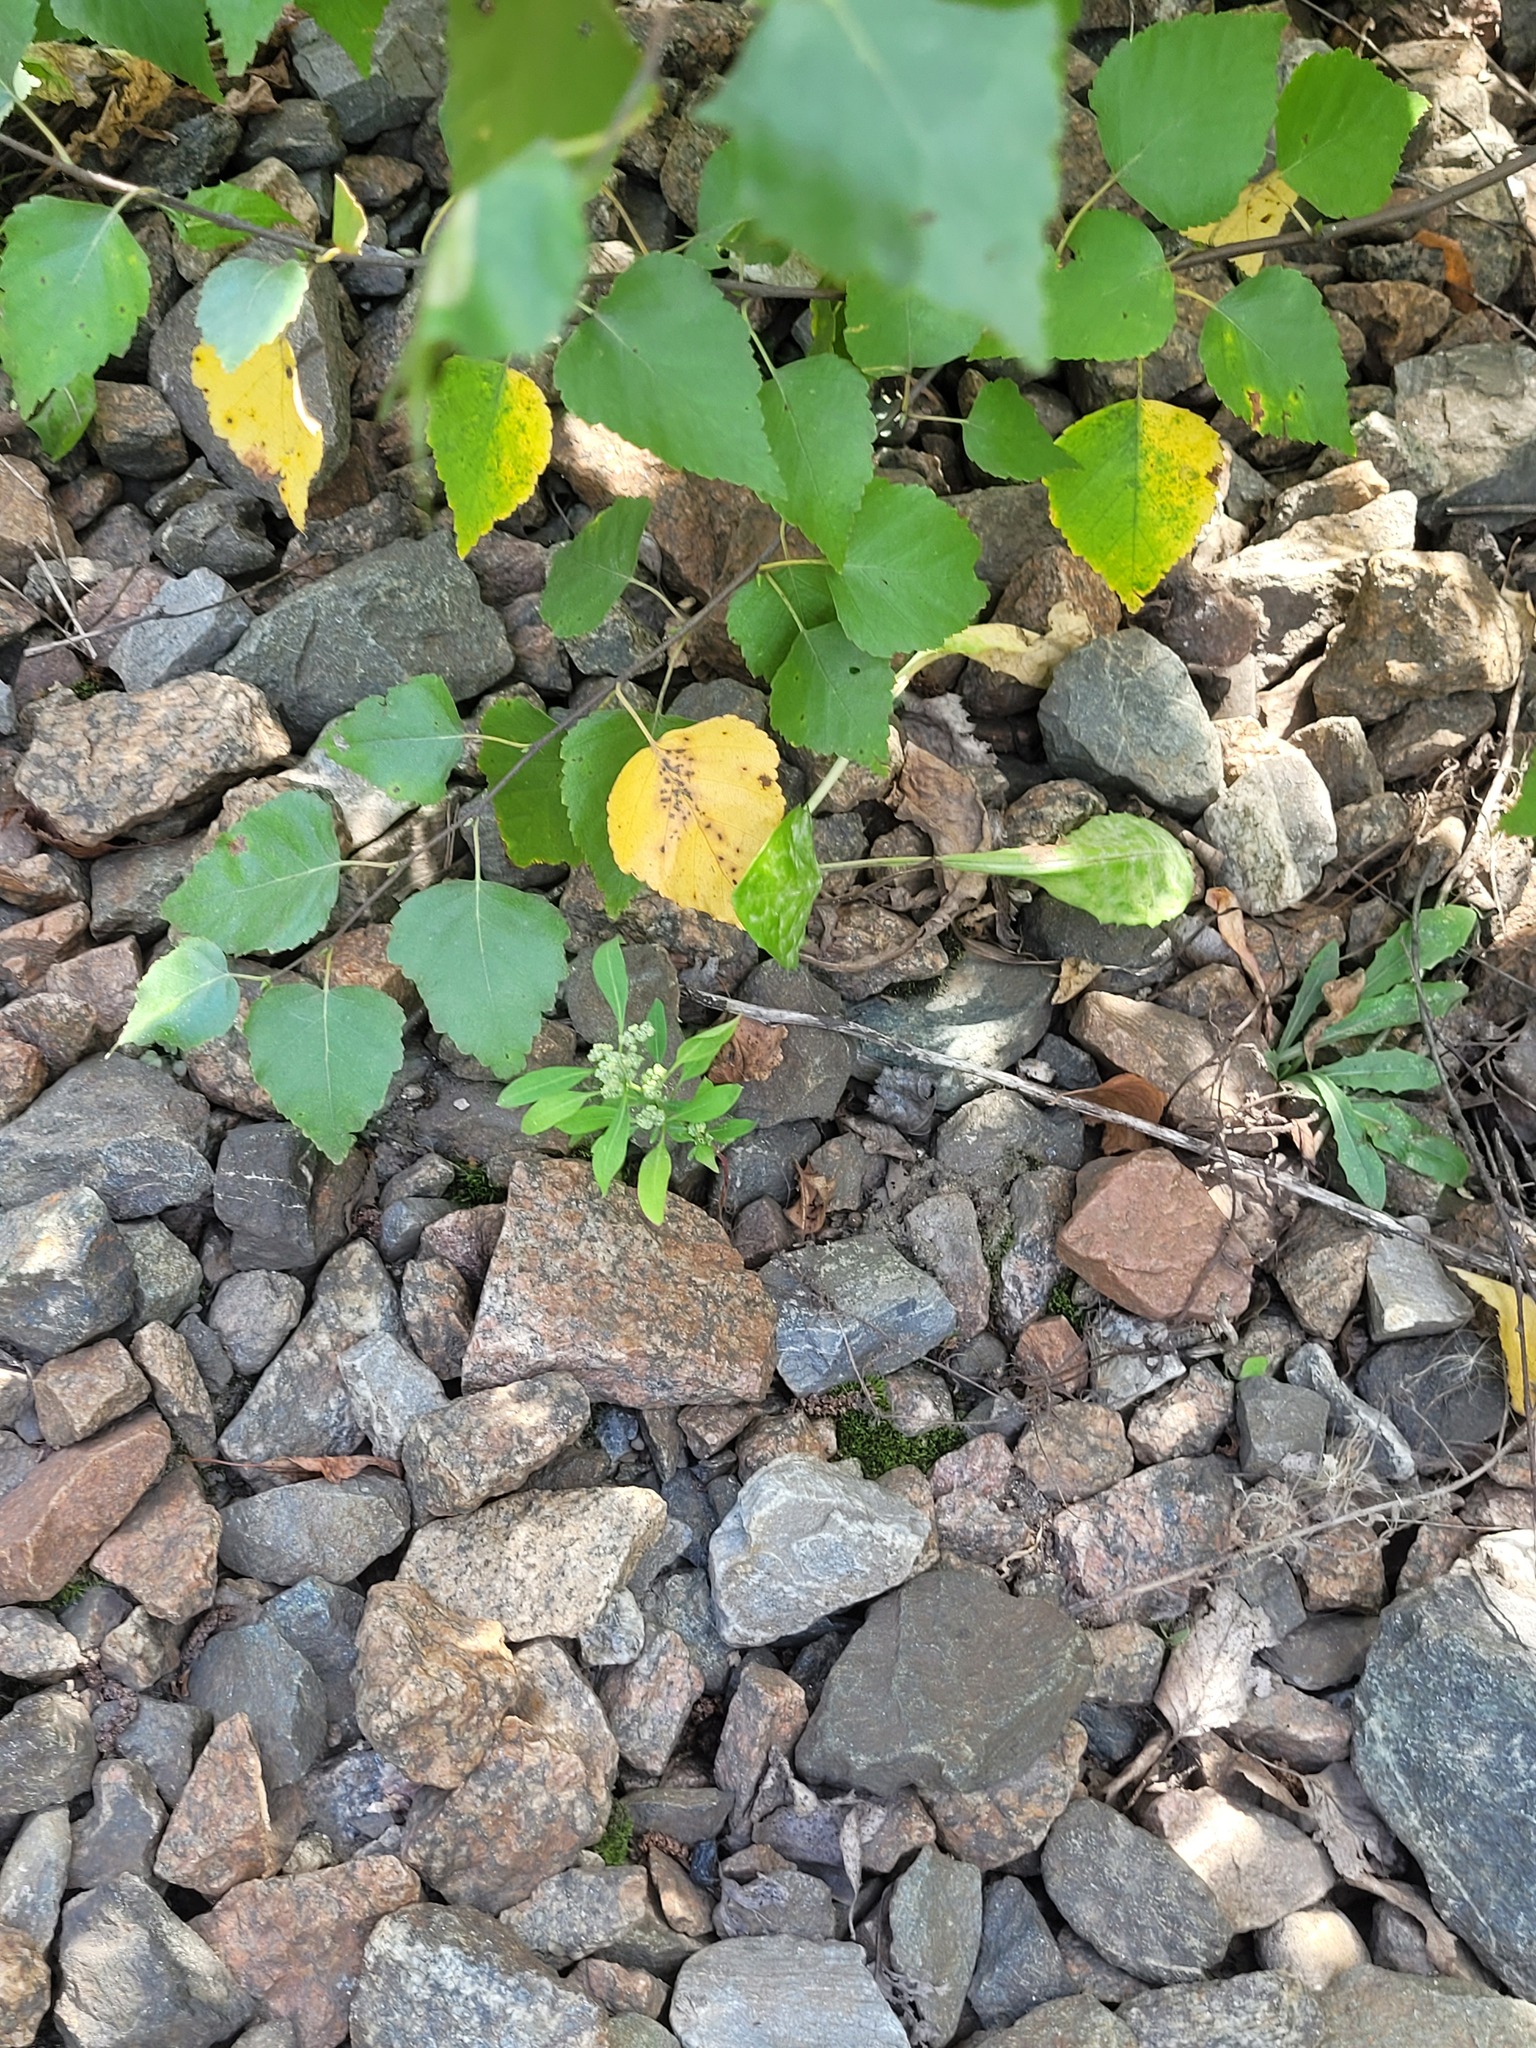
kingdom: Plantae
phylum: Tracheophyta
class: Magnoliopsida
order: Caryophyllales
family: Amaranthaceae
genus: Chenopodium
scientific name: Chenopodium album
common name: Fat-hen
